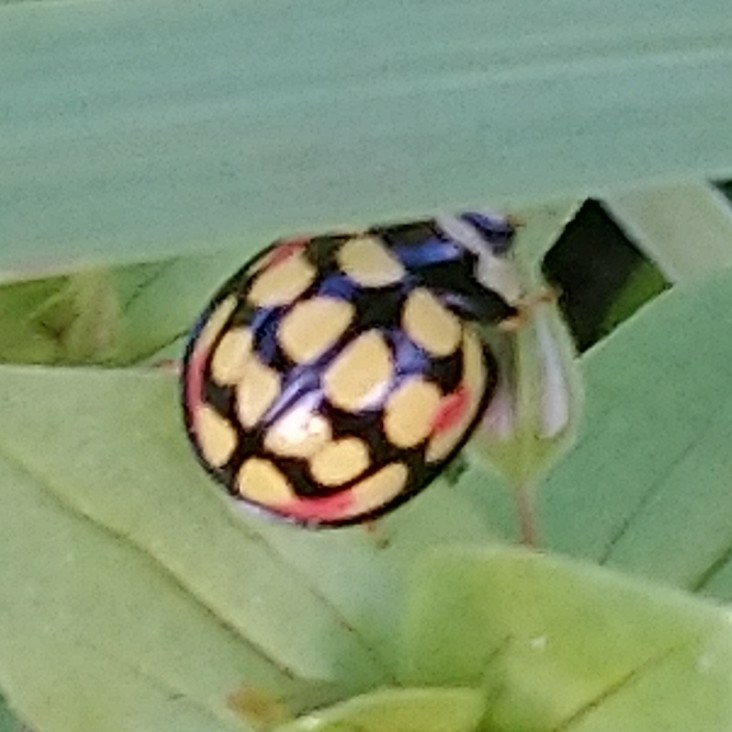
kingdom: Animalia
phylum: Arthropoda
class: Insecta
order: Coleoptera
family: Coccinellidae
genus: Cheilomenes
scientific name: Cheilomenes sulphurea
